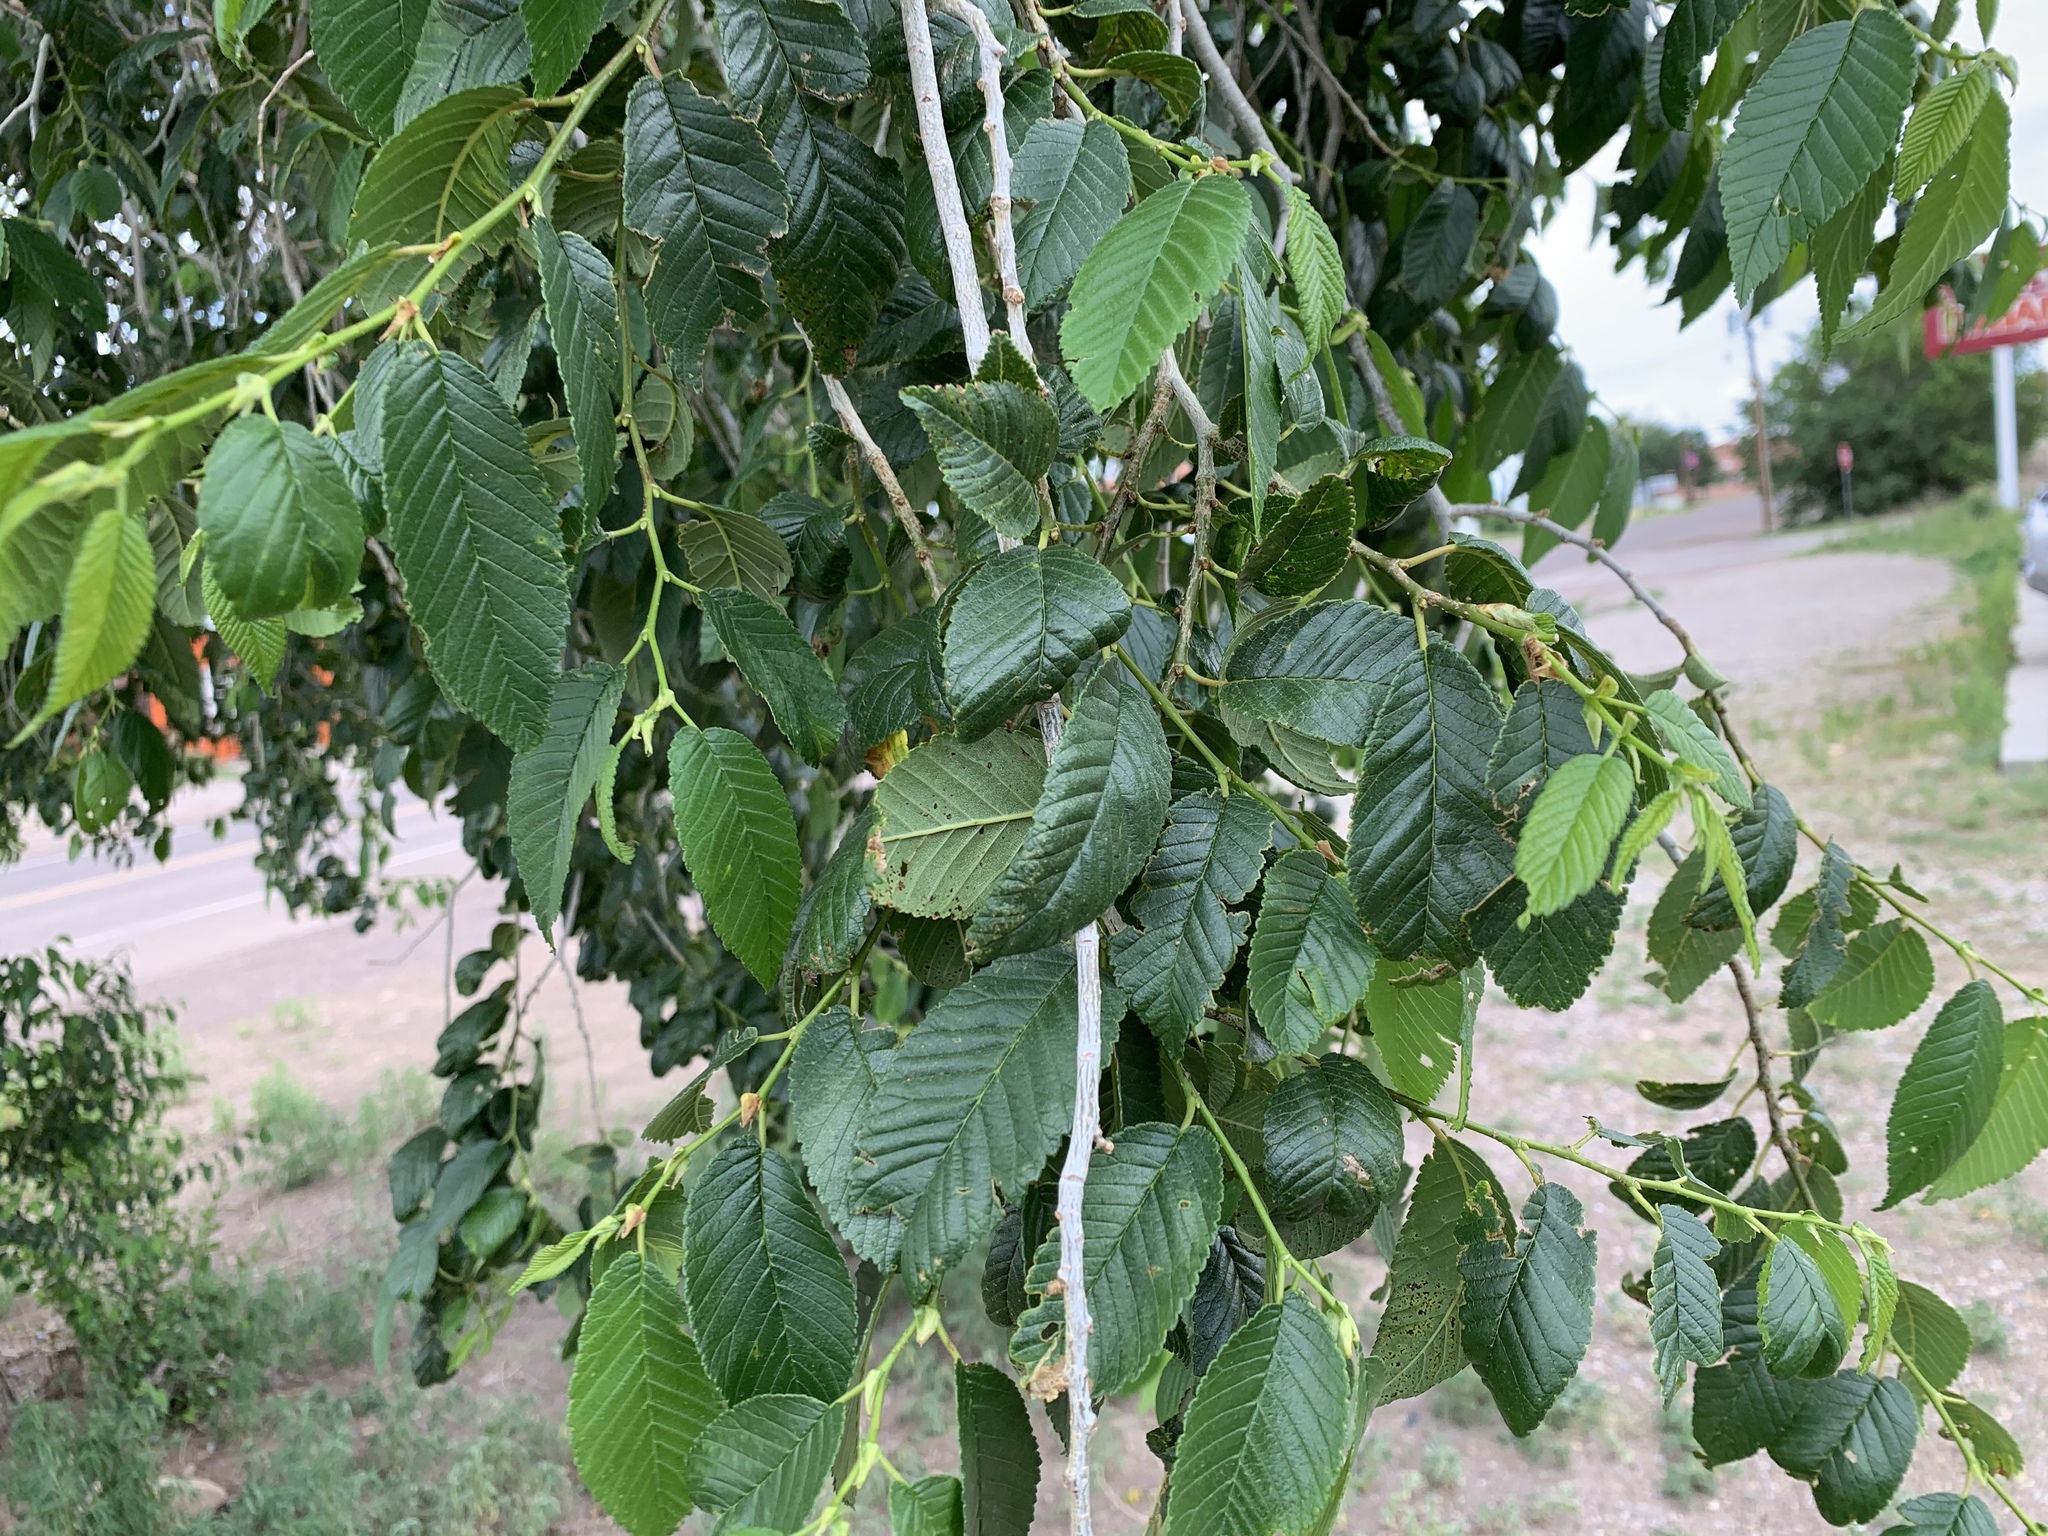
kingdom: Plantae
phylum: Tracheophyta
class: Magnoliopsida
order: Rosales
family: Ulmaceae
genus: Ulmus
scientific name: Ulmus pumila
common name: Siberian elm
